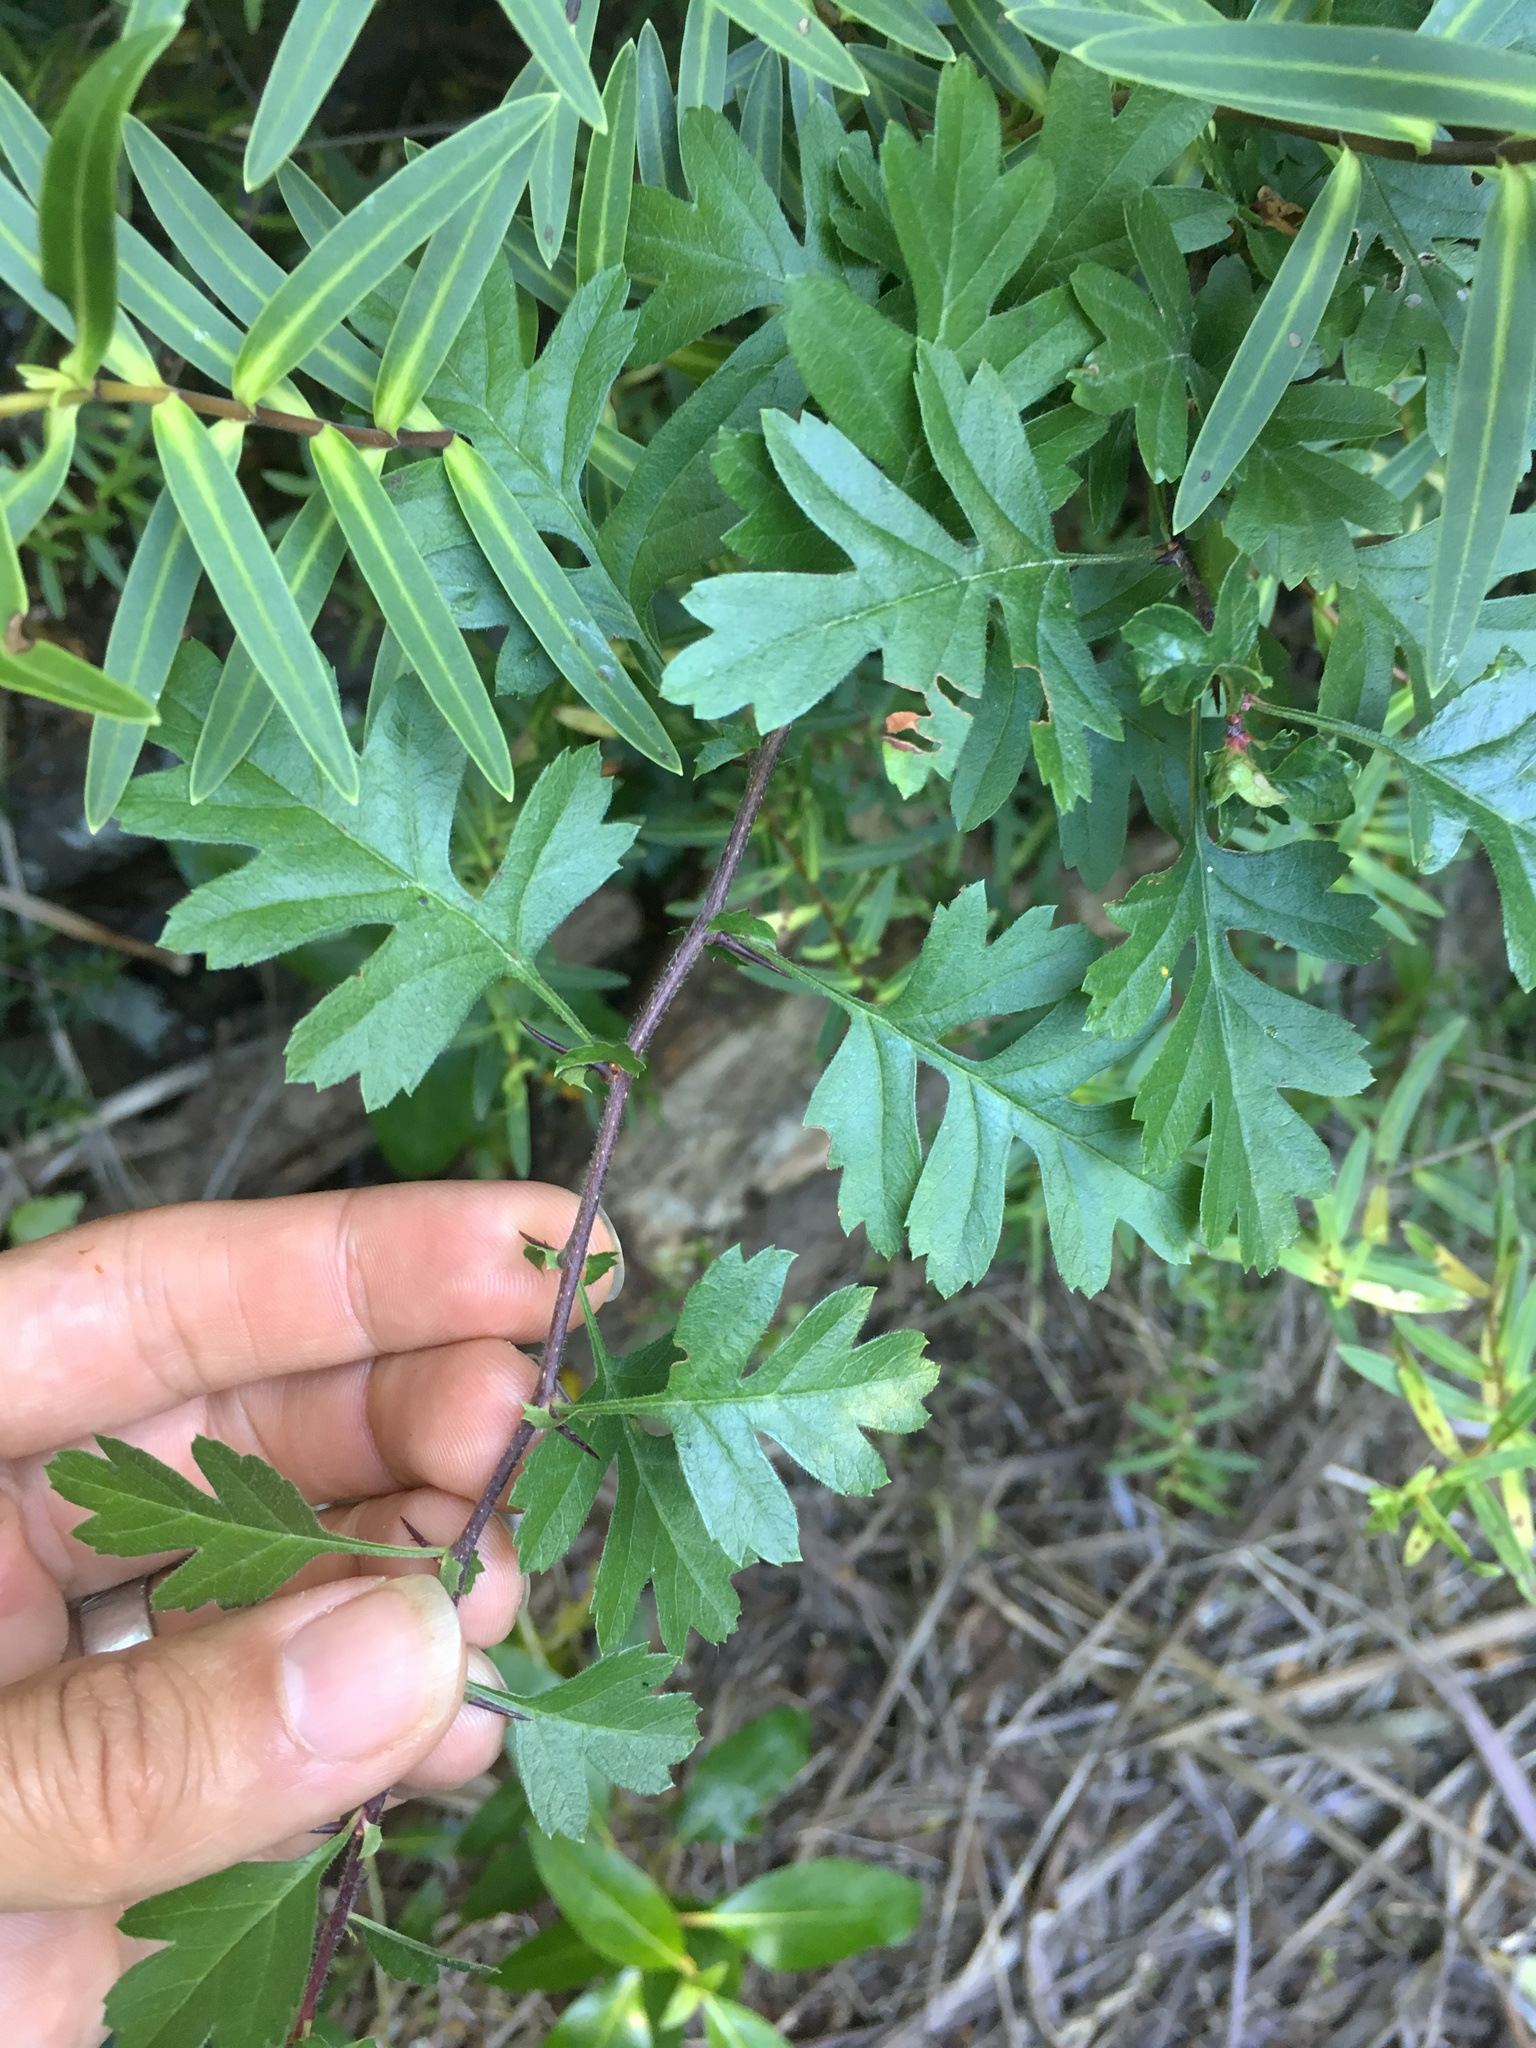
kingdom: Plantae
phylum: Tracheophyta
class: Magnoliopsida
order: Rosales
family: Rosaceae
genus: Crataegus
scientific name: Crataegus monogyna
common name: Hawthorn
